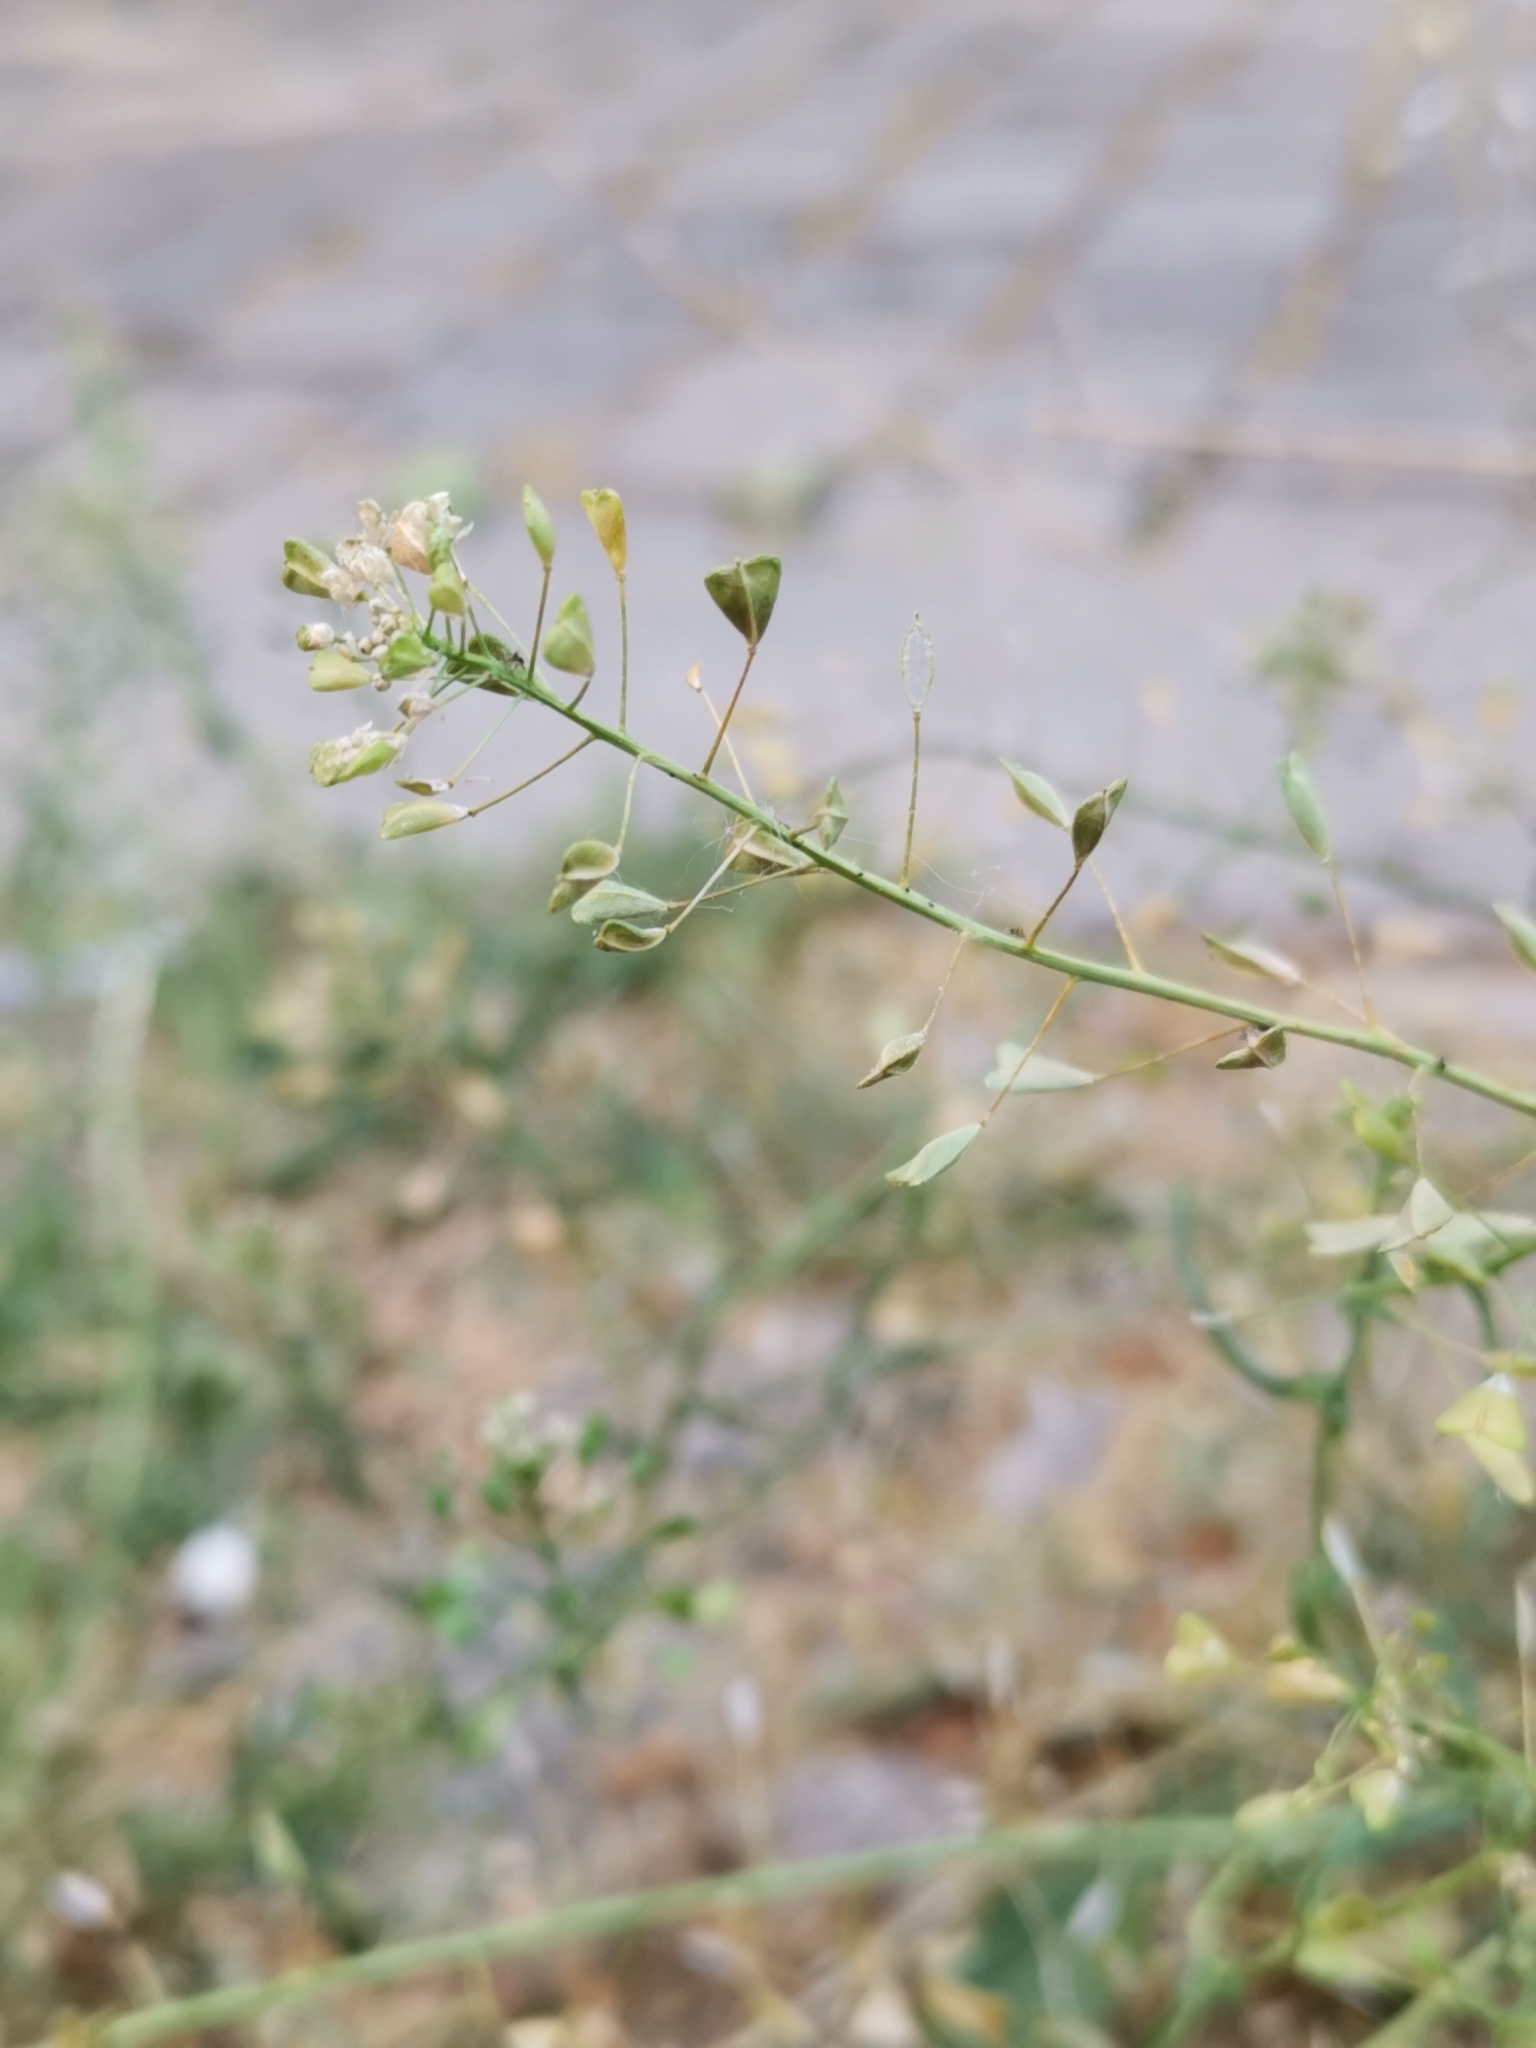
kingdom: Plantae
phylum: Tracheophyta
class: Magnoliopsida
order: Brassicales
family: Brassicaceae
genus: Capsella
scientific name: Capsella bursa-pastoris
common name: Shepherd's purse
